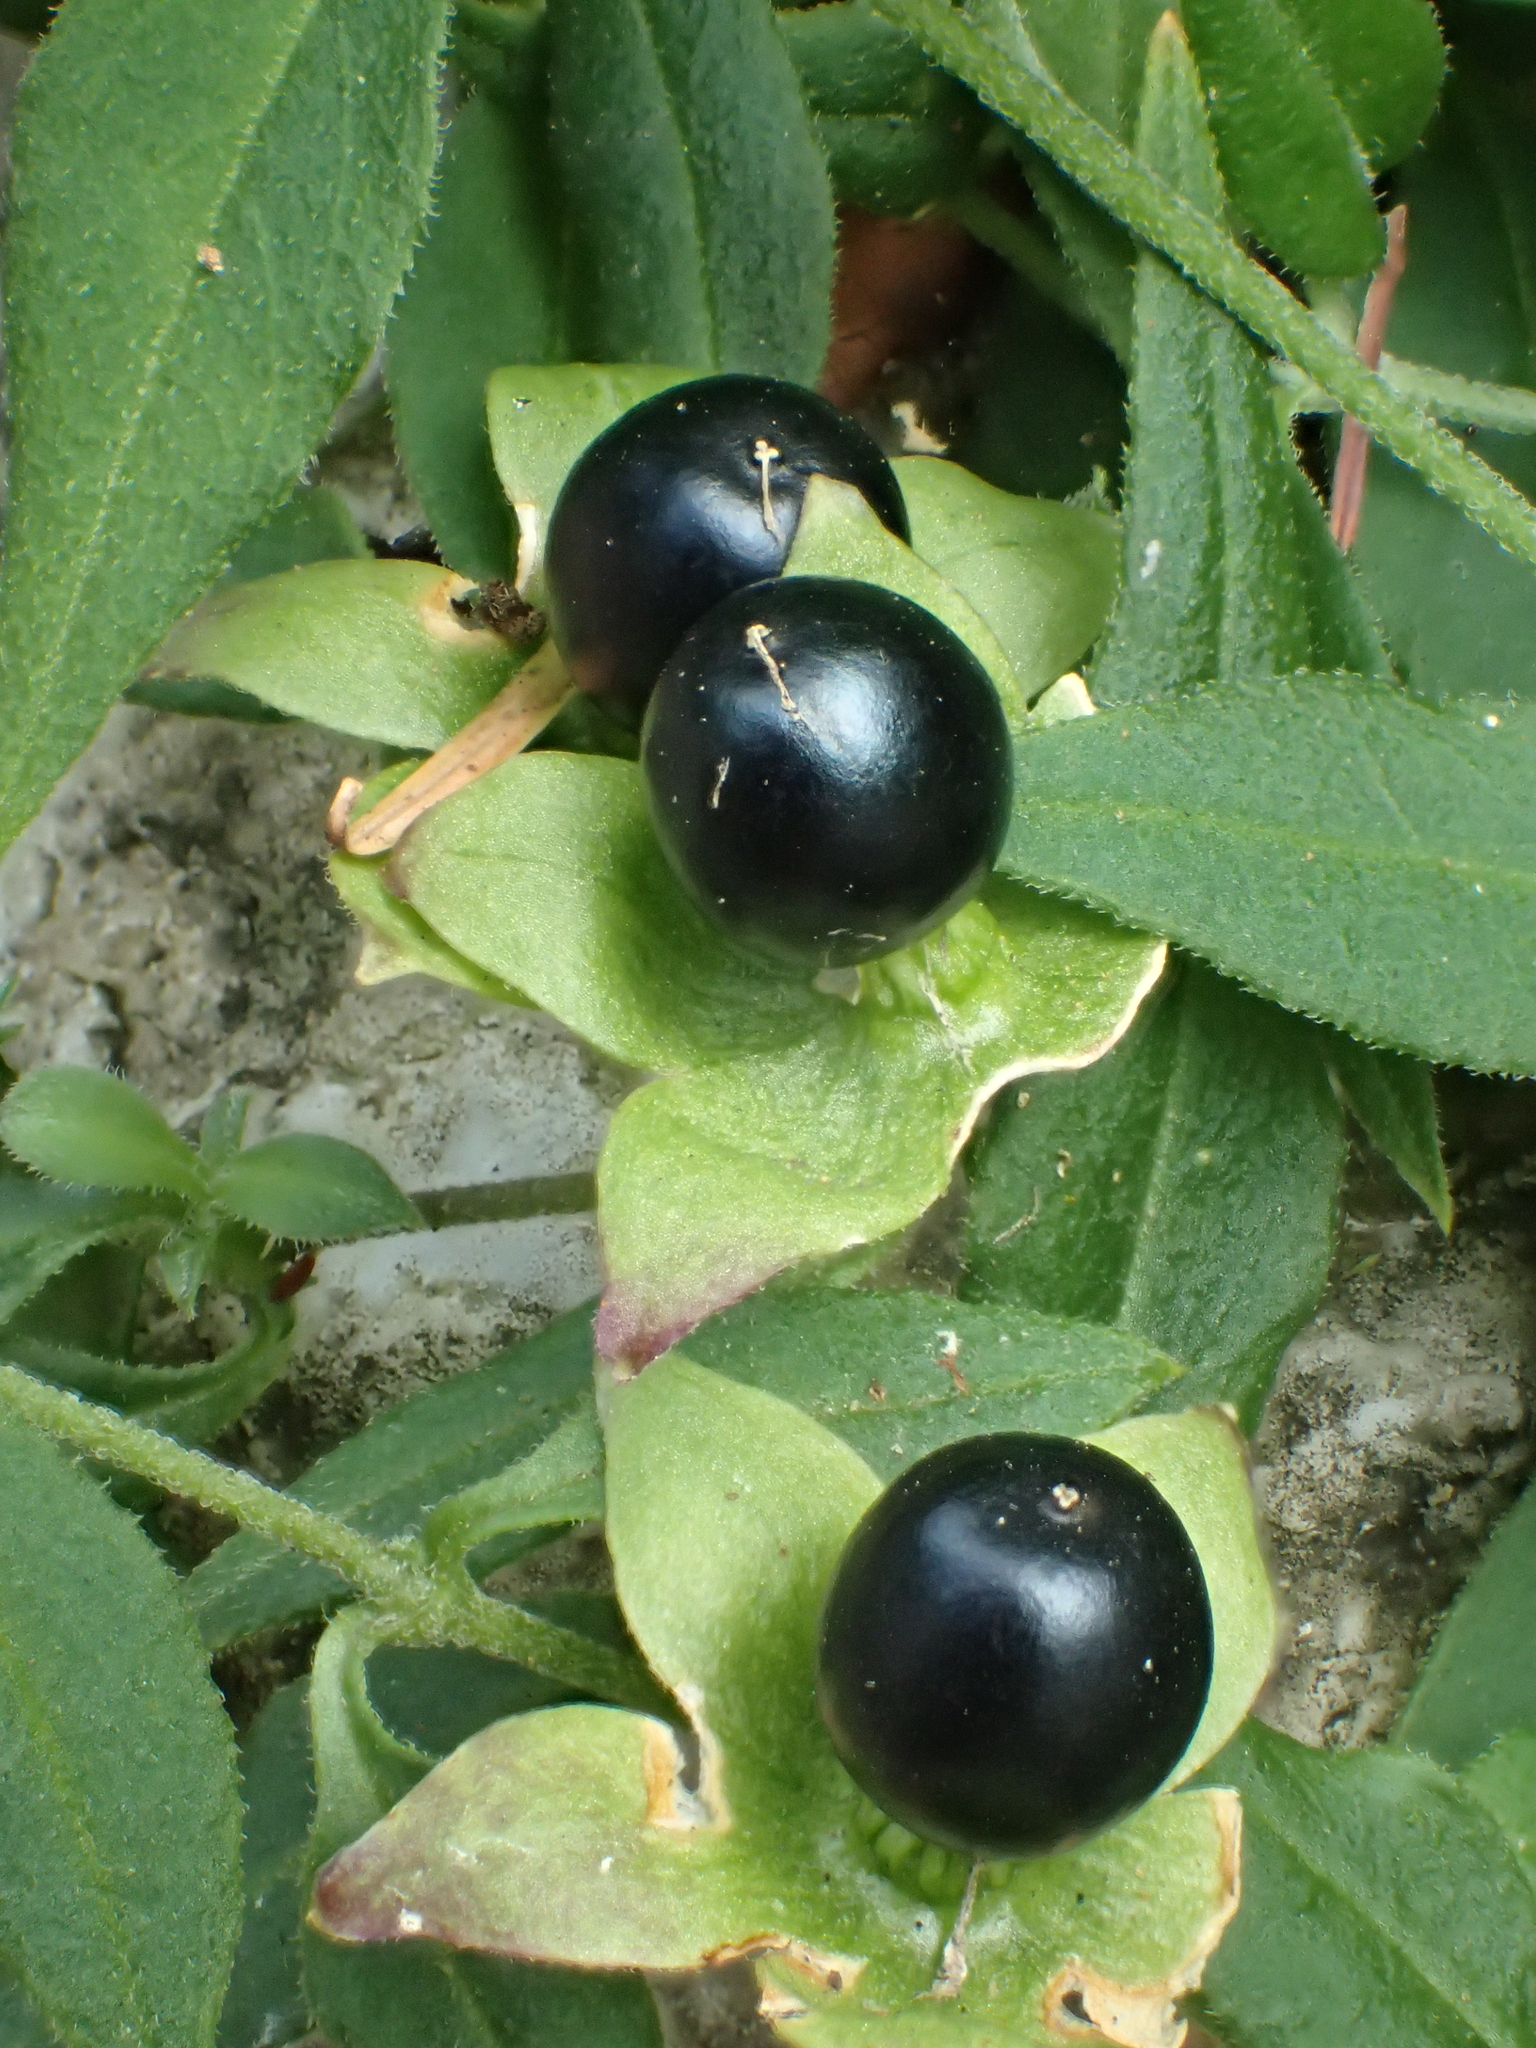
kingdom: Plantae
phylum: Tracheophyta
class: Magnoliopsida
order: Caryophyllales
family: Caryophyllaceae
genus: Silene
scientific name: Silene baccifera
